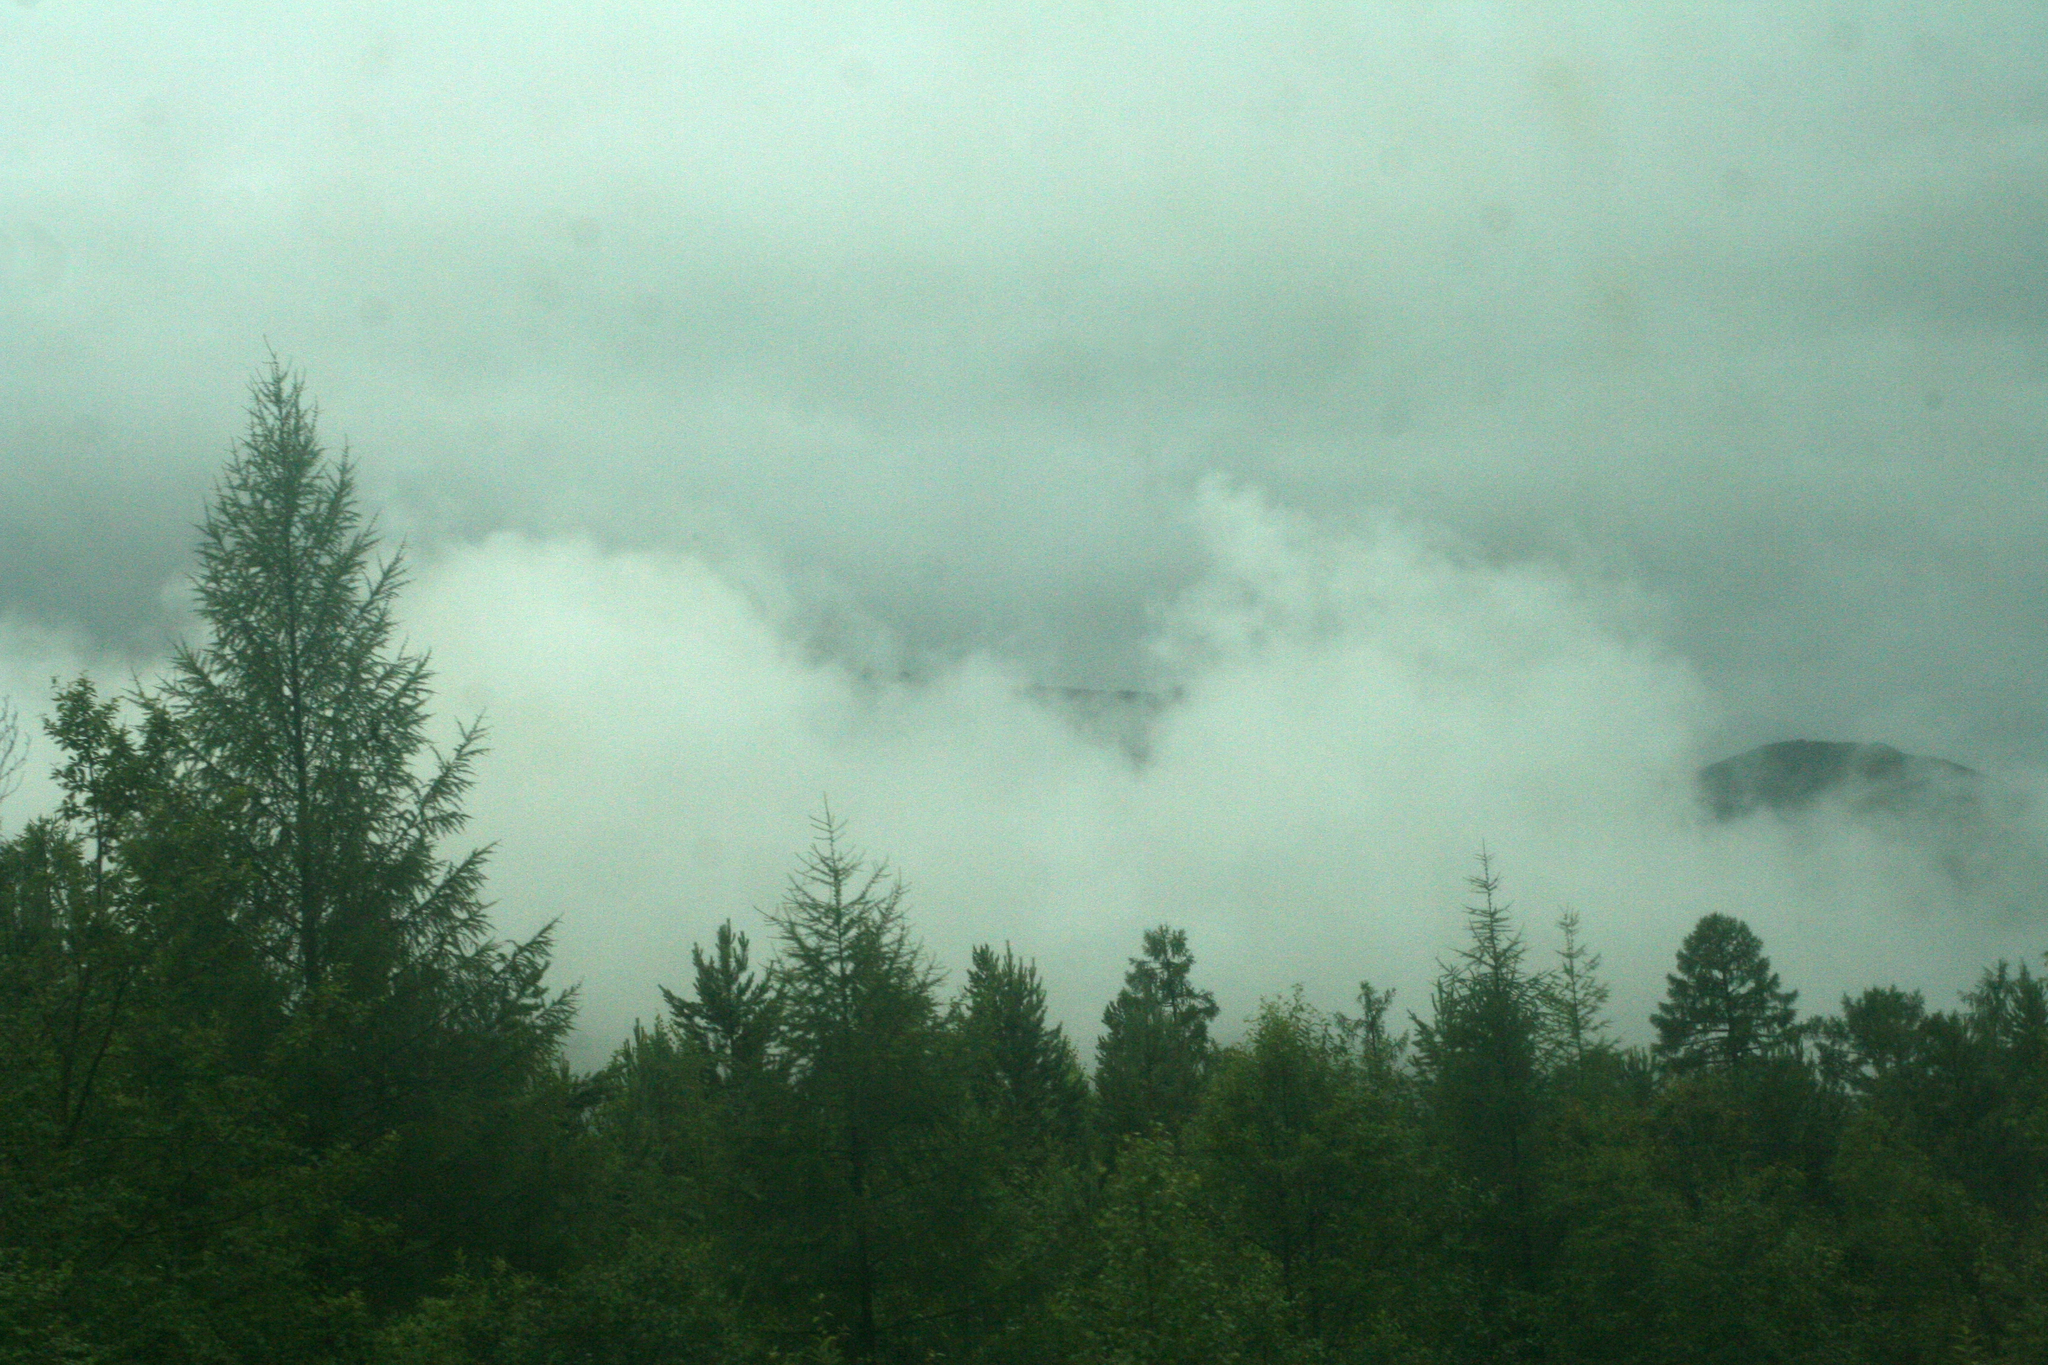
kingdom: Plantae
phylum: Tracheophyta
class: Pinopsida
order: Pinales
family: Pinaceae
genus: Pinus
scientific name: Pinus sylvestris
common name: Scots pine
